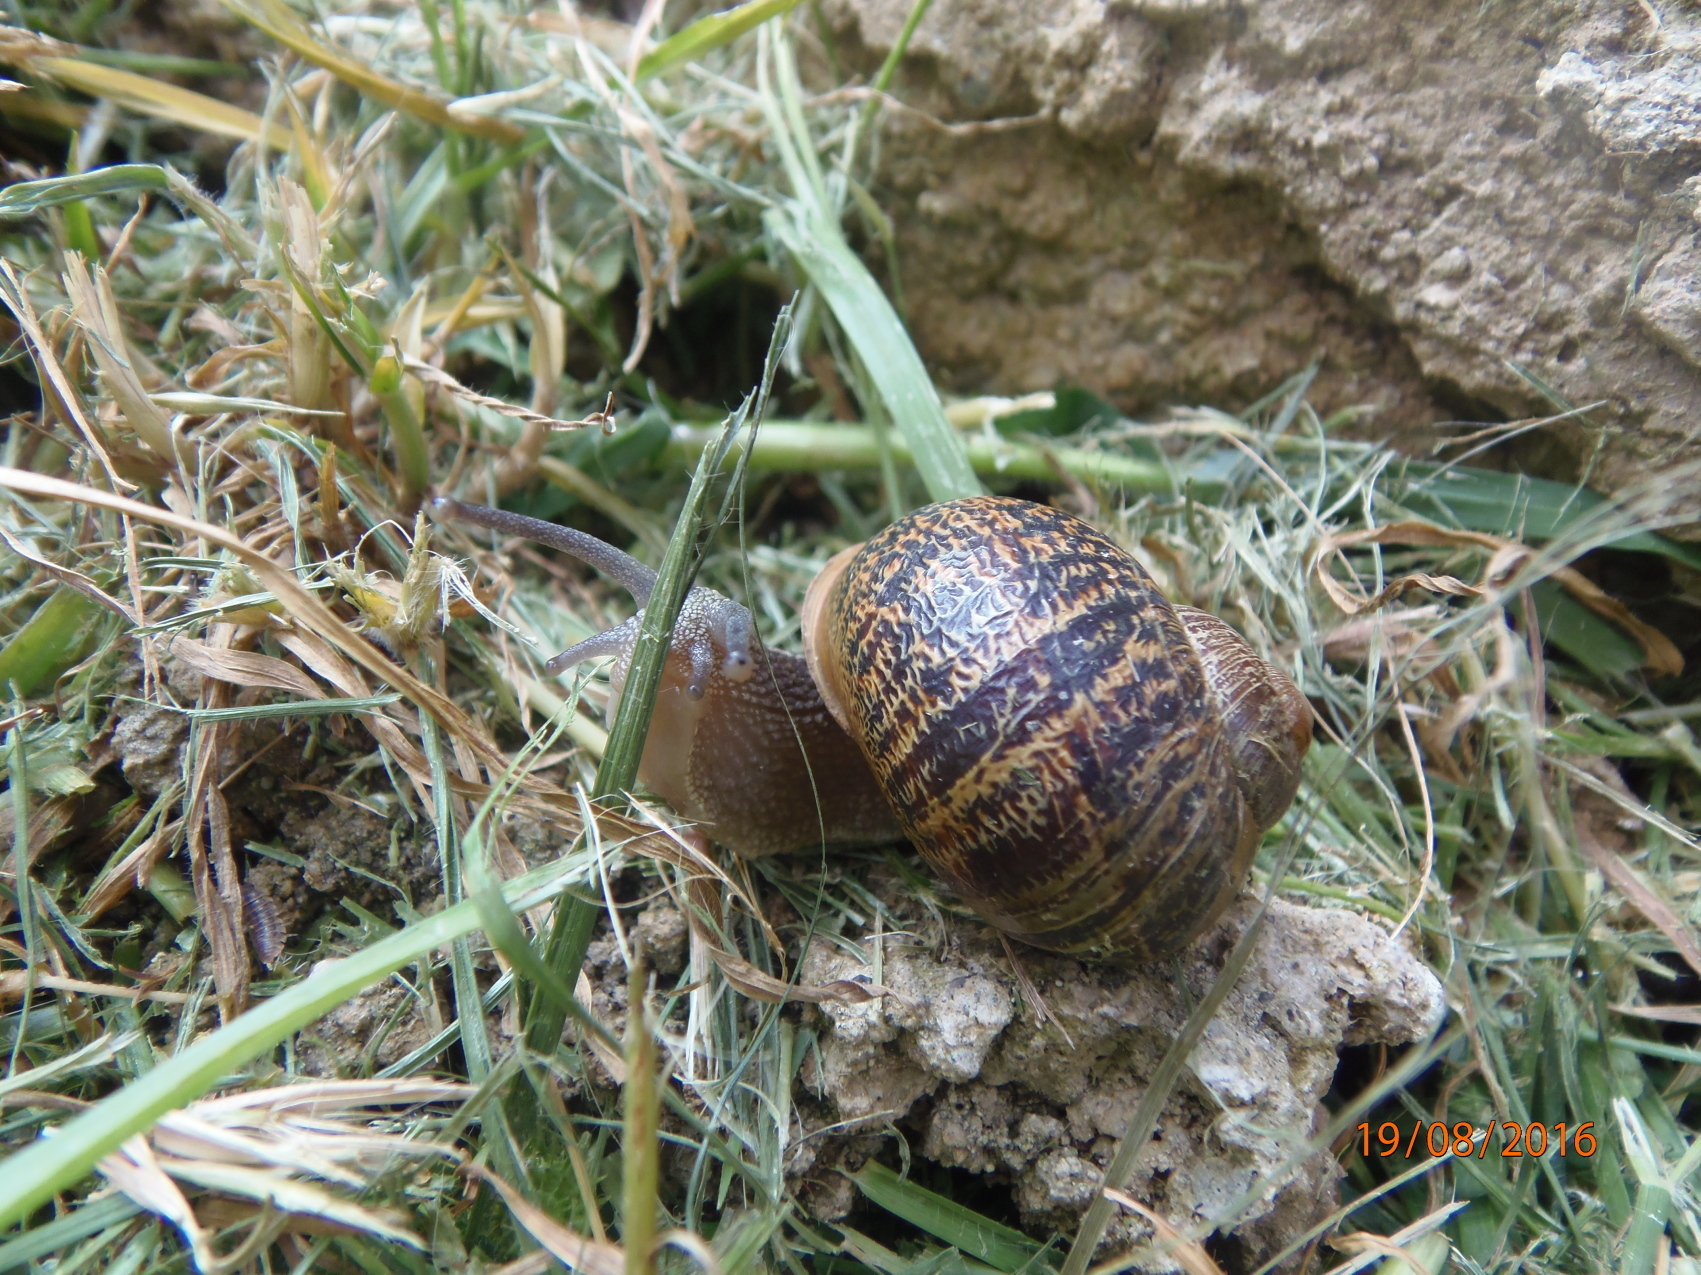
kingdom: Animalia
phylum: Mollusca
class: Gastropoda
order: Stylommatophora
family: Helicidae
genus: Cornu
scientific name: Cornu aspersum
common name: Brown garden snail
